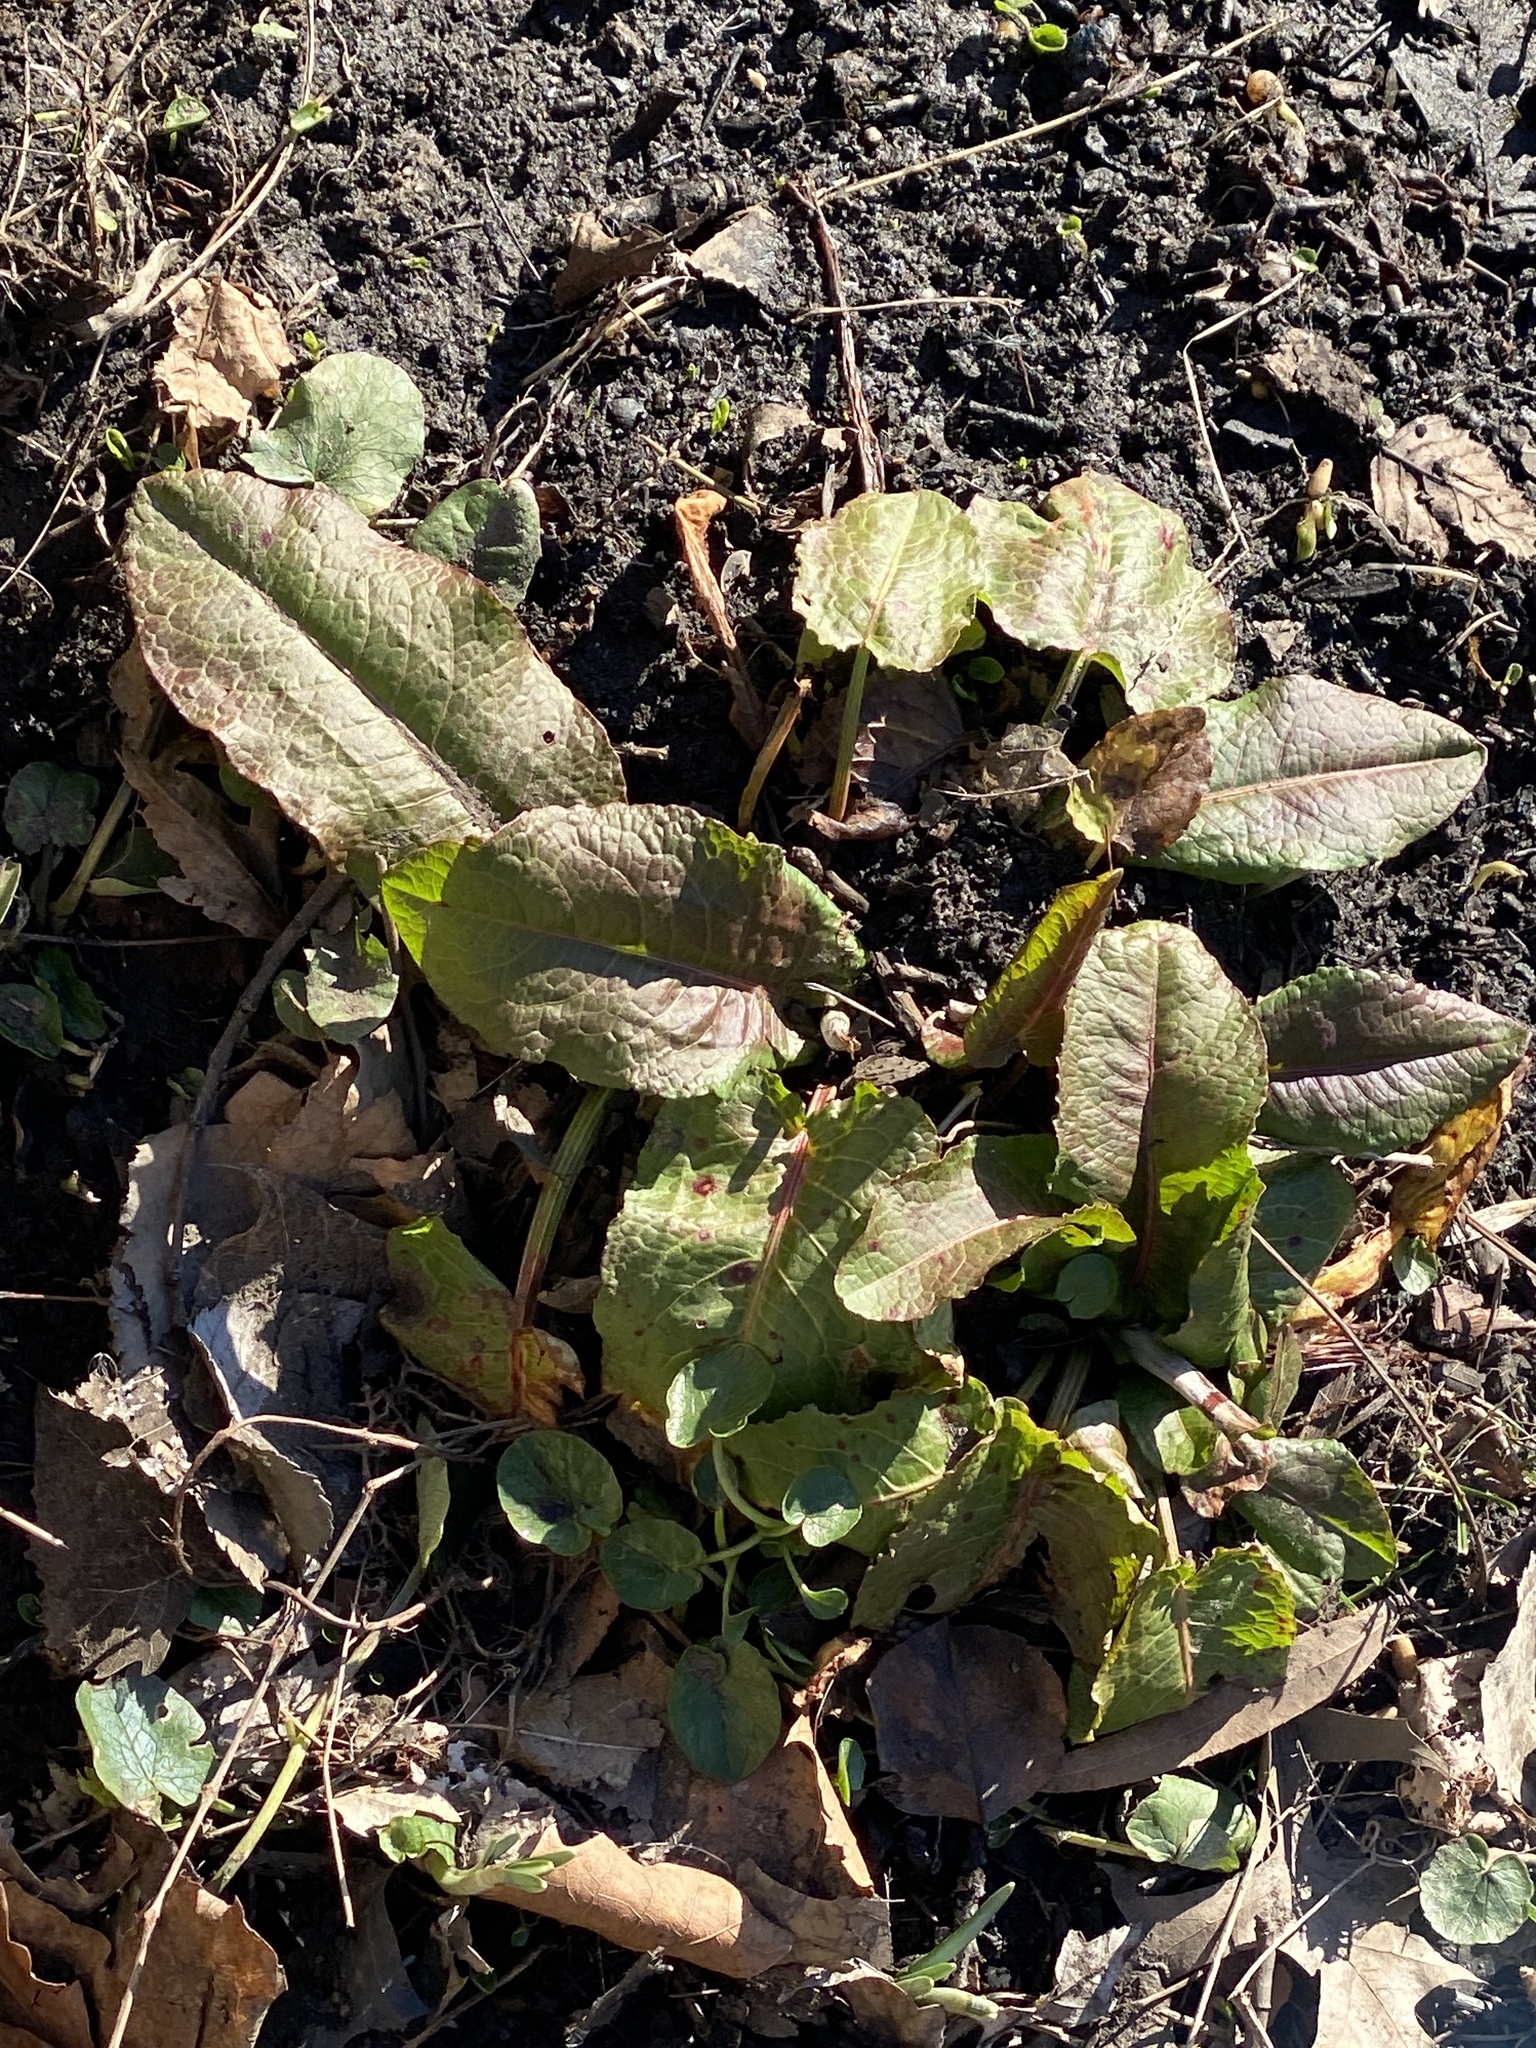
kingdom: Plantae
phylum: Tracheophyta
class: Magnoliopsida
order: Caryophyllales
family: Polygonaceae
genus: Rumex
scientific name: Rumex obtusifolius
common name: Bitter dock
